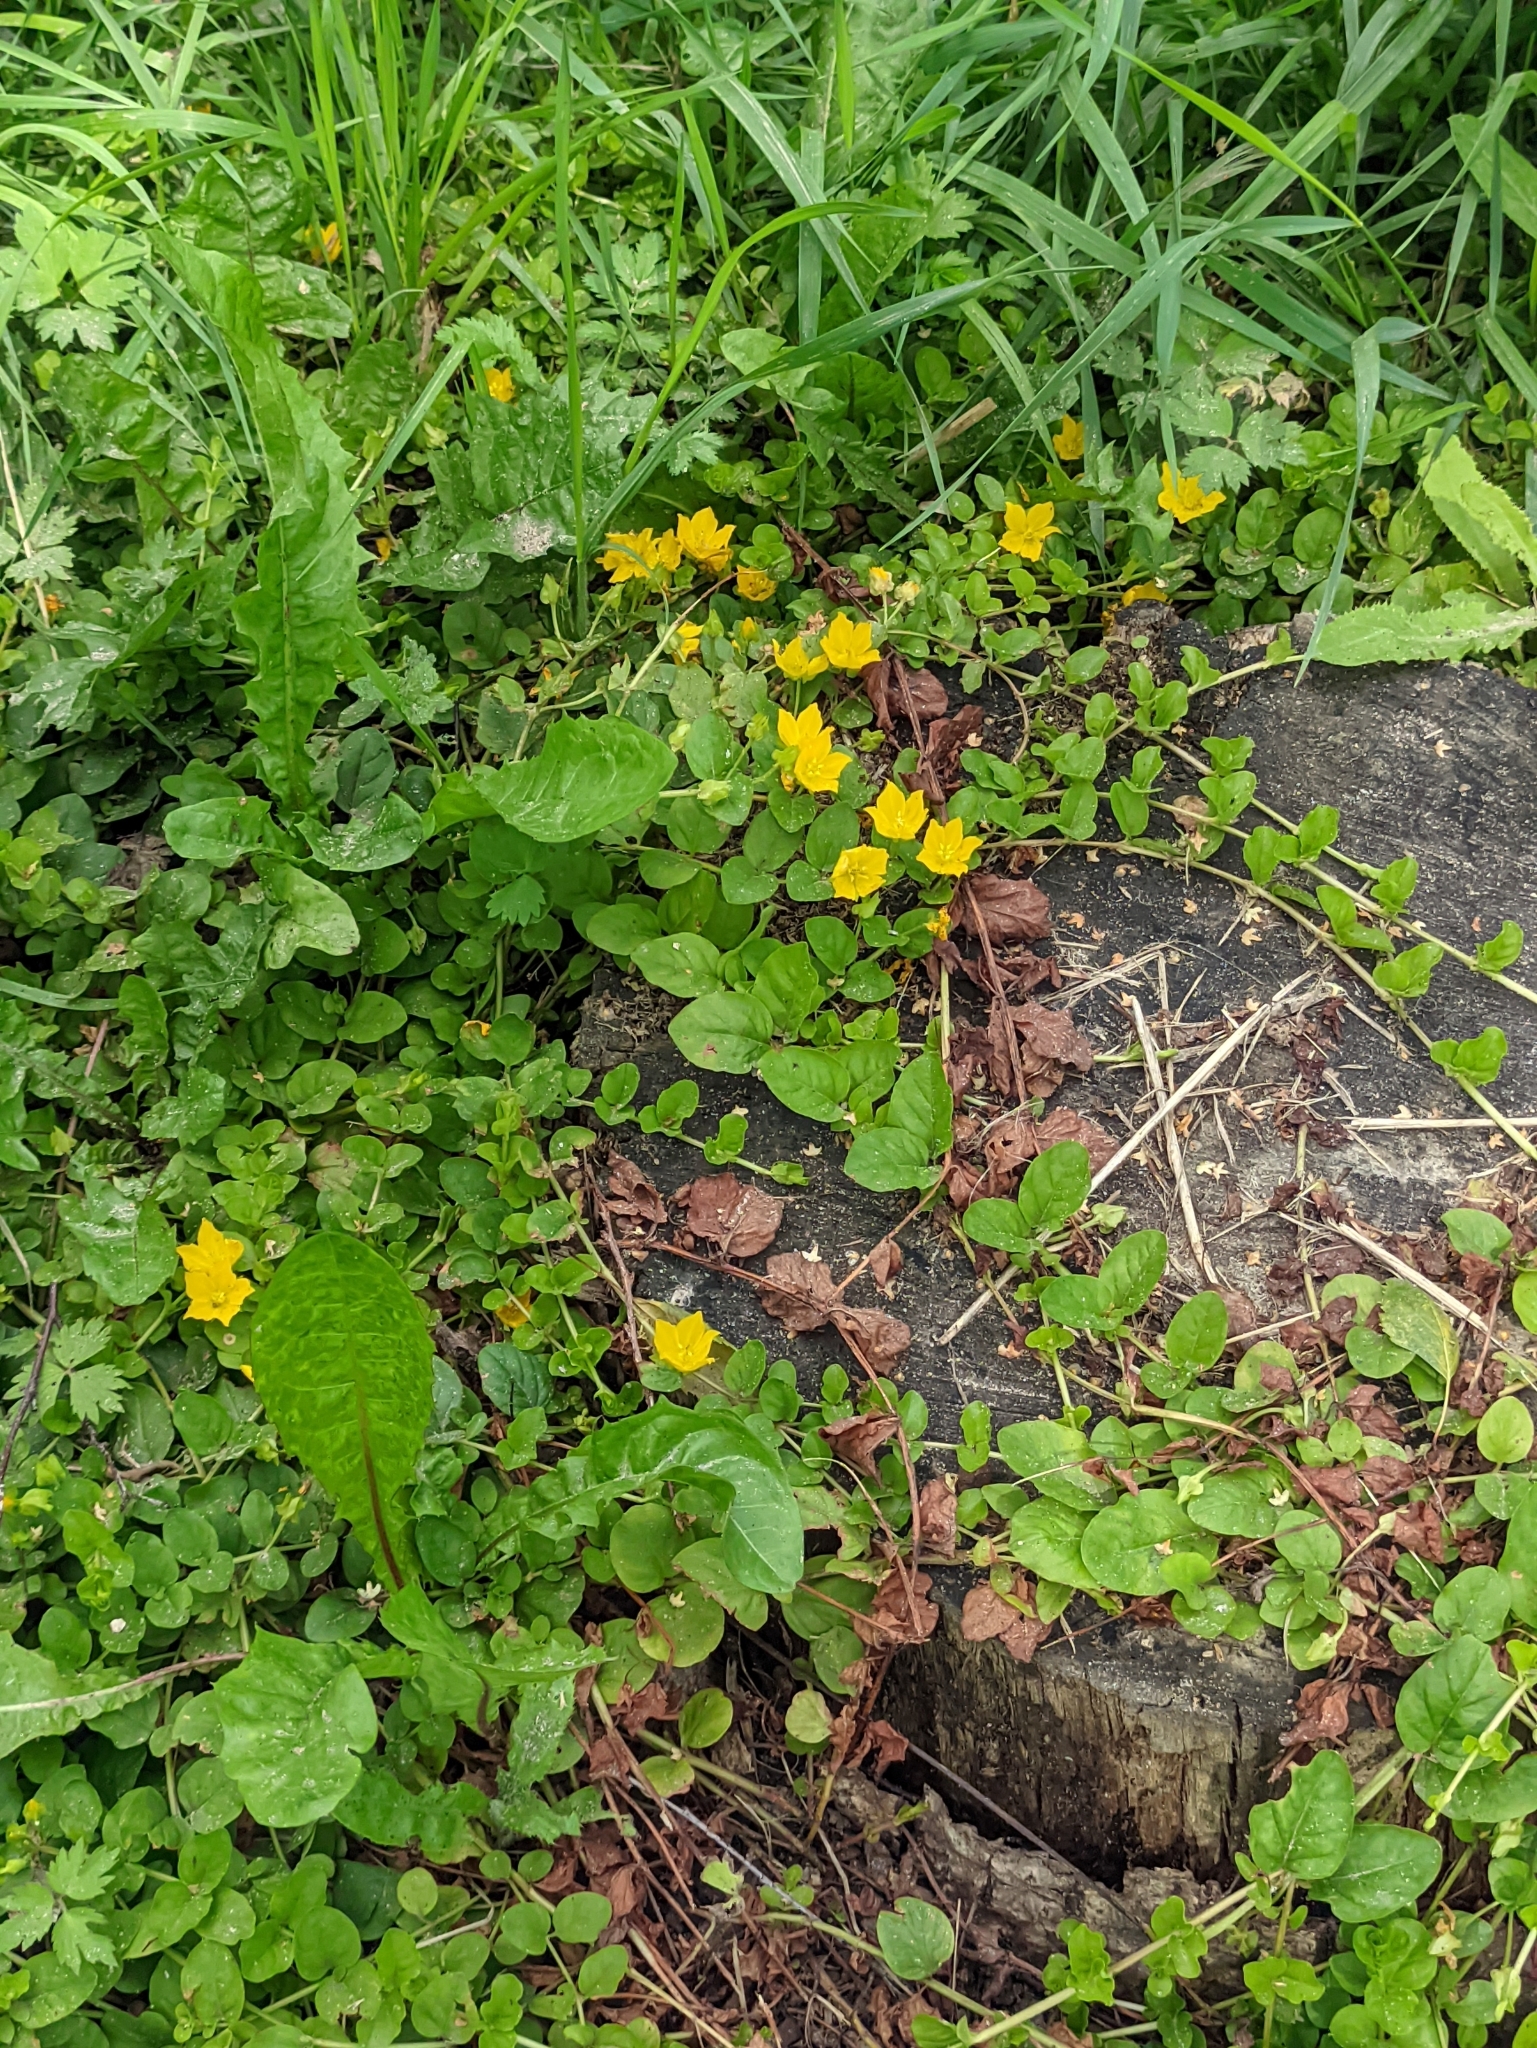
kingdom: Plantae
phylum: Tracheophyta
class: Magnoliopsida
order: Ericales
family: Primulaceae
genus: Lysimachia
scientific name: Lysimachia nummularia
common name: Moneywort
